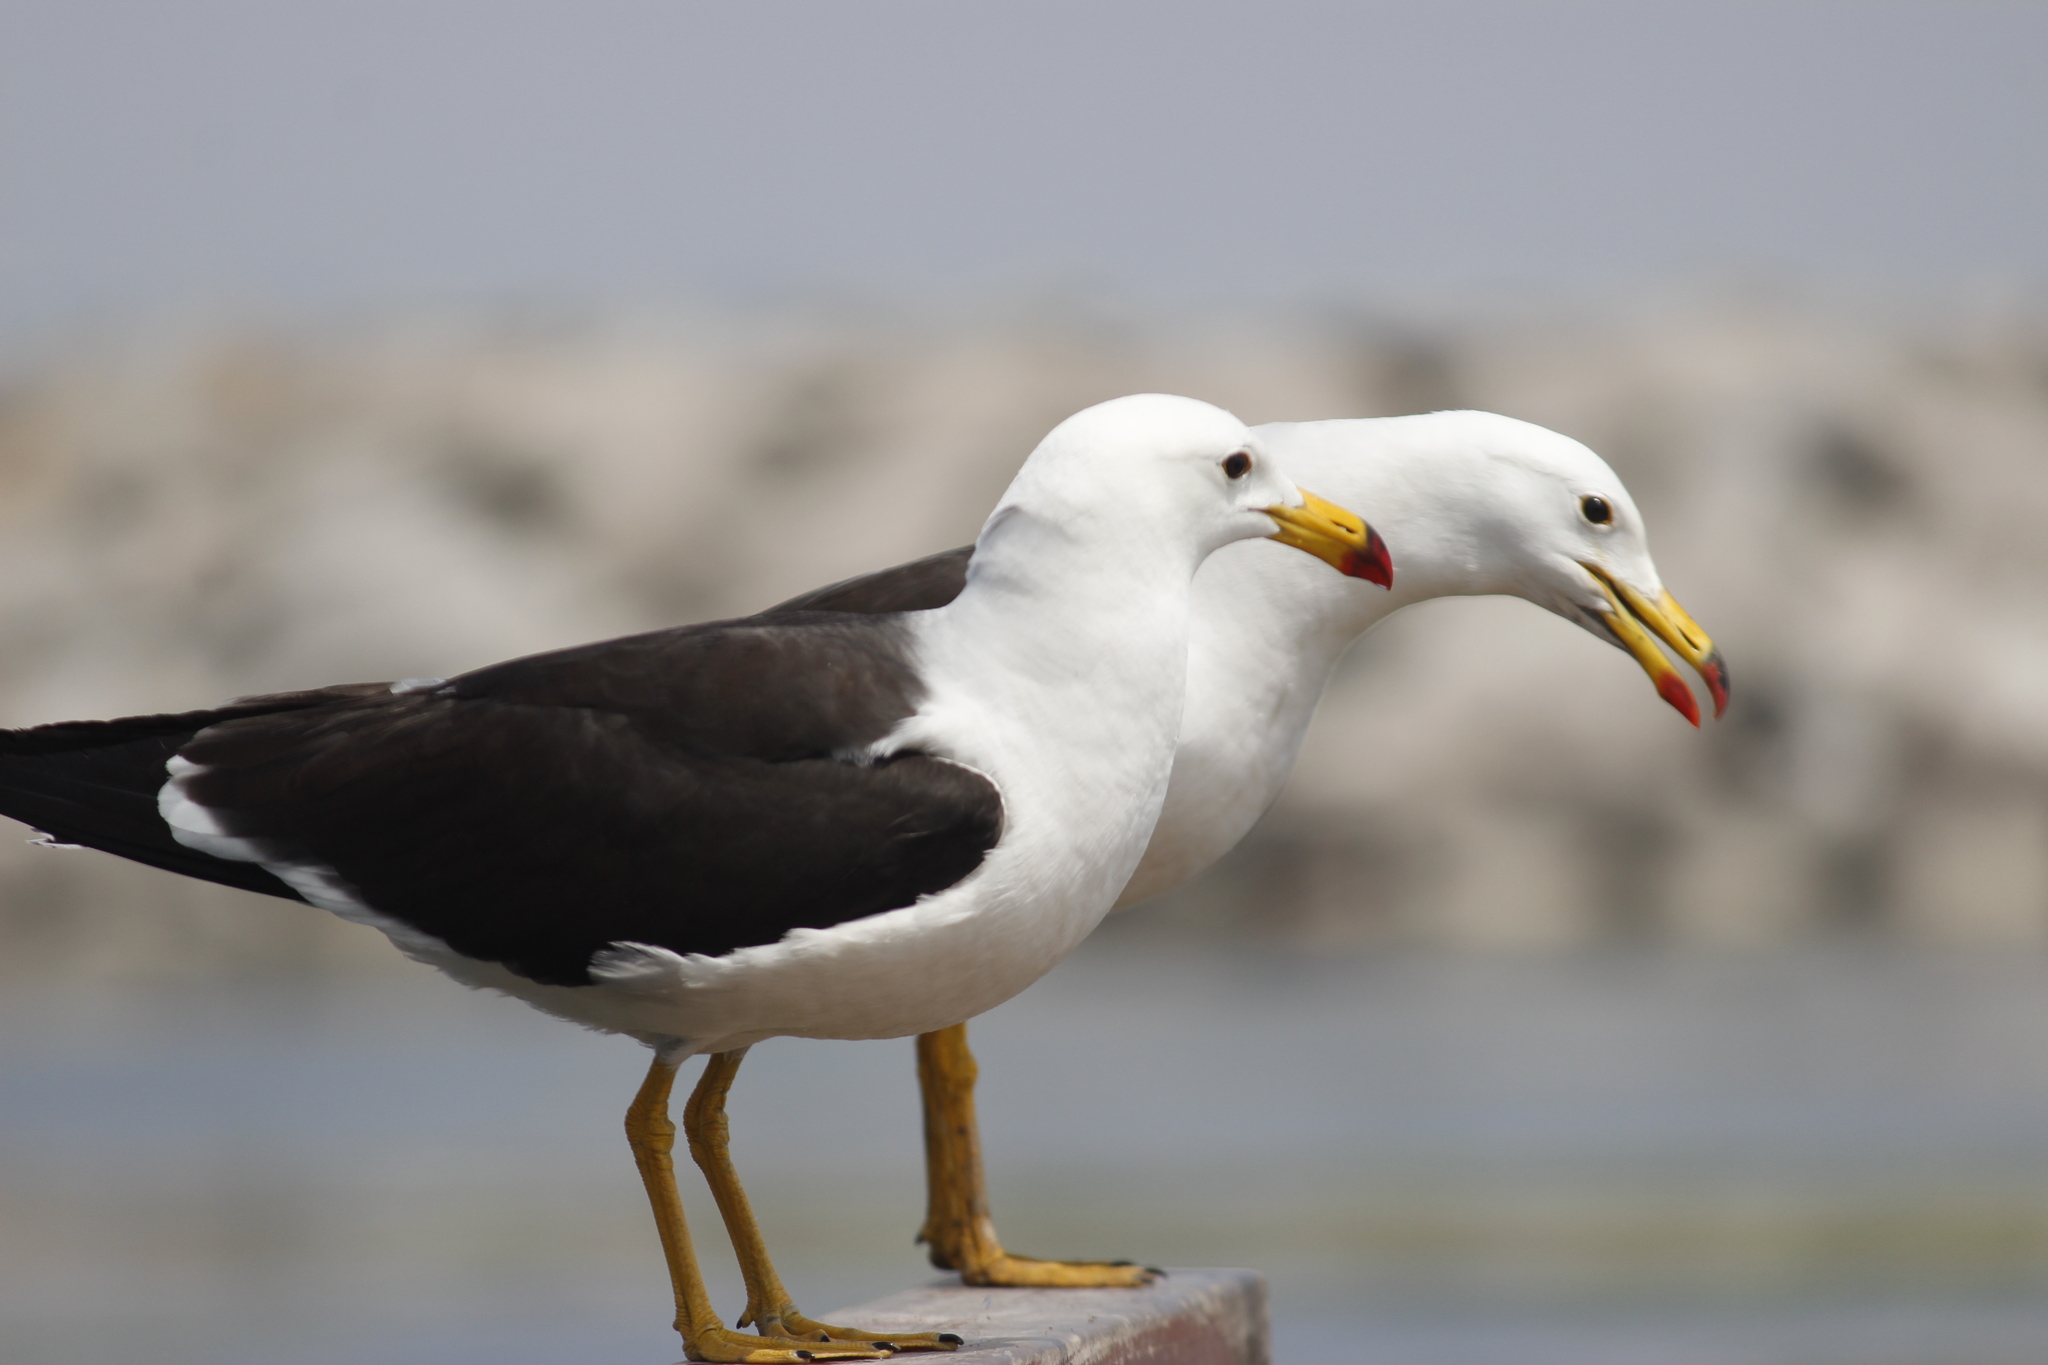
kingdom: Animalia
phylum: Chordata
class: Aves
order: Charadriiformes
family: Laridae
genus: Larus
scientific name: Larus belcheri
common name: Belcher's gull
